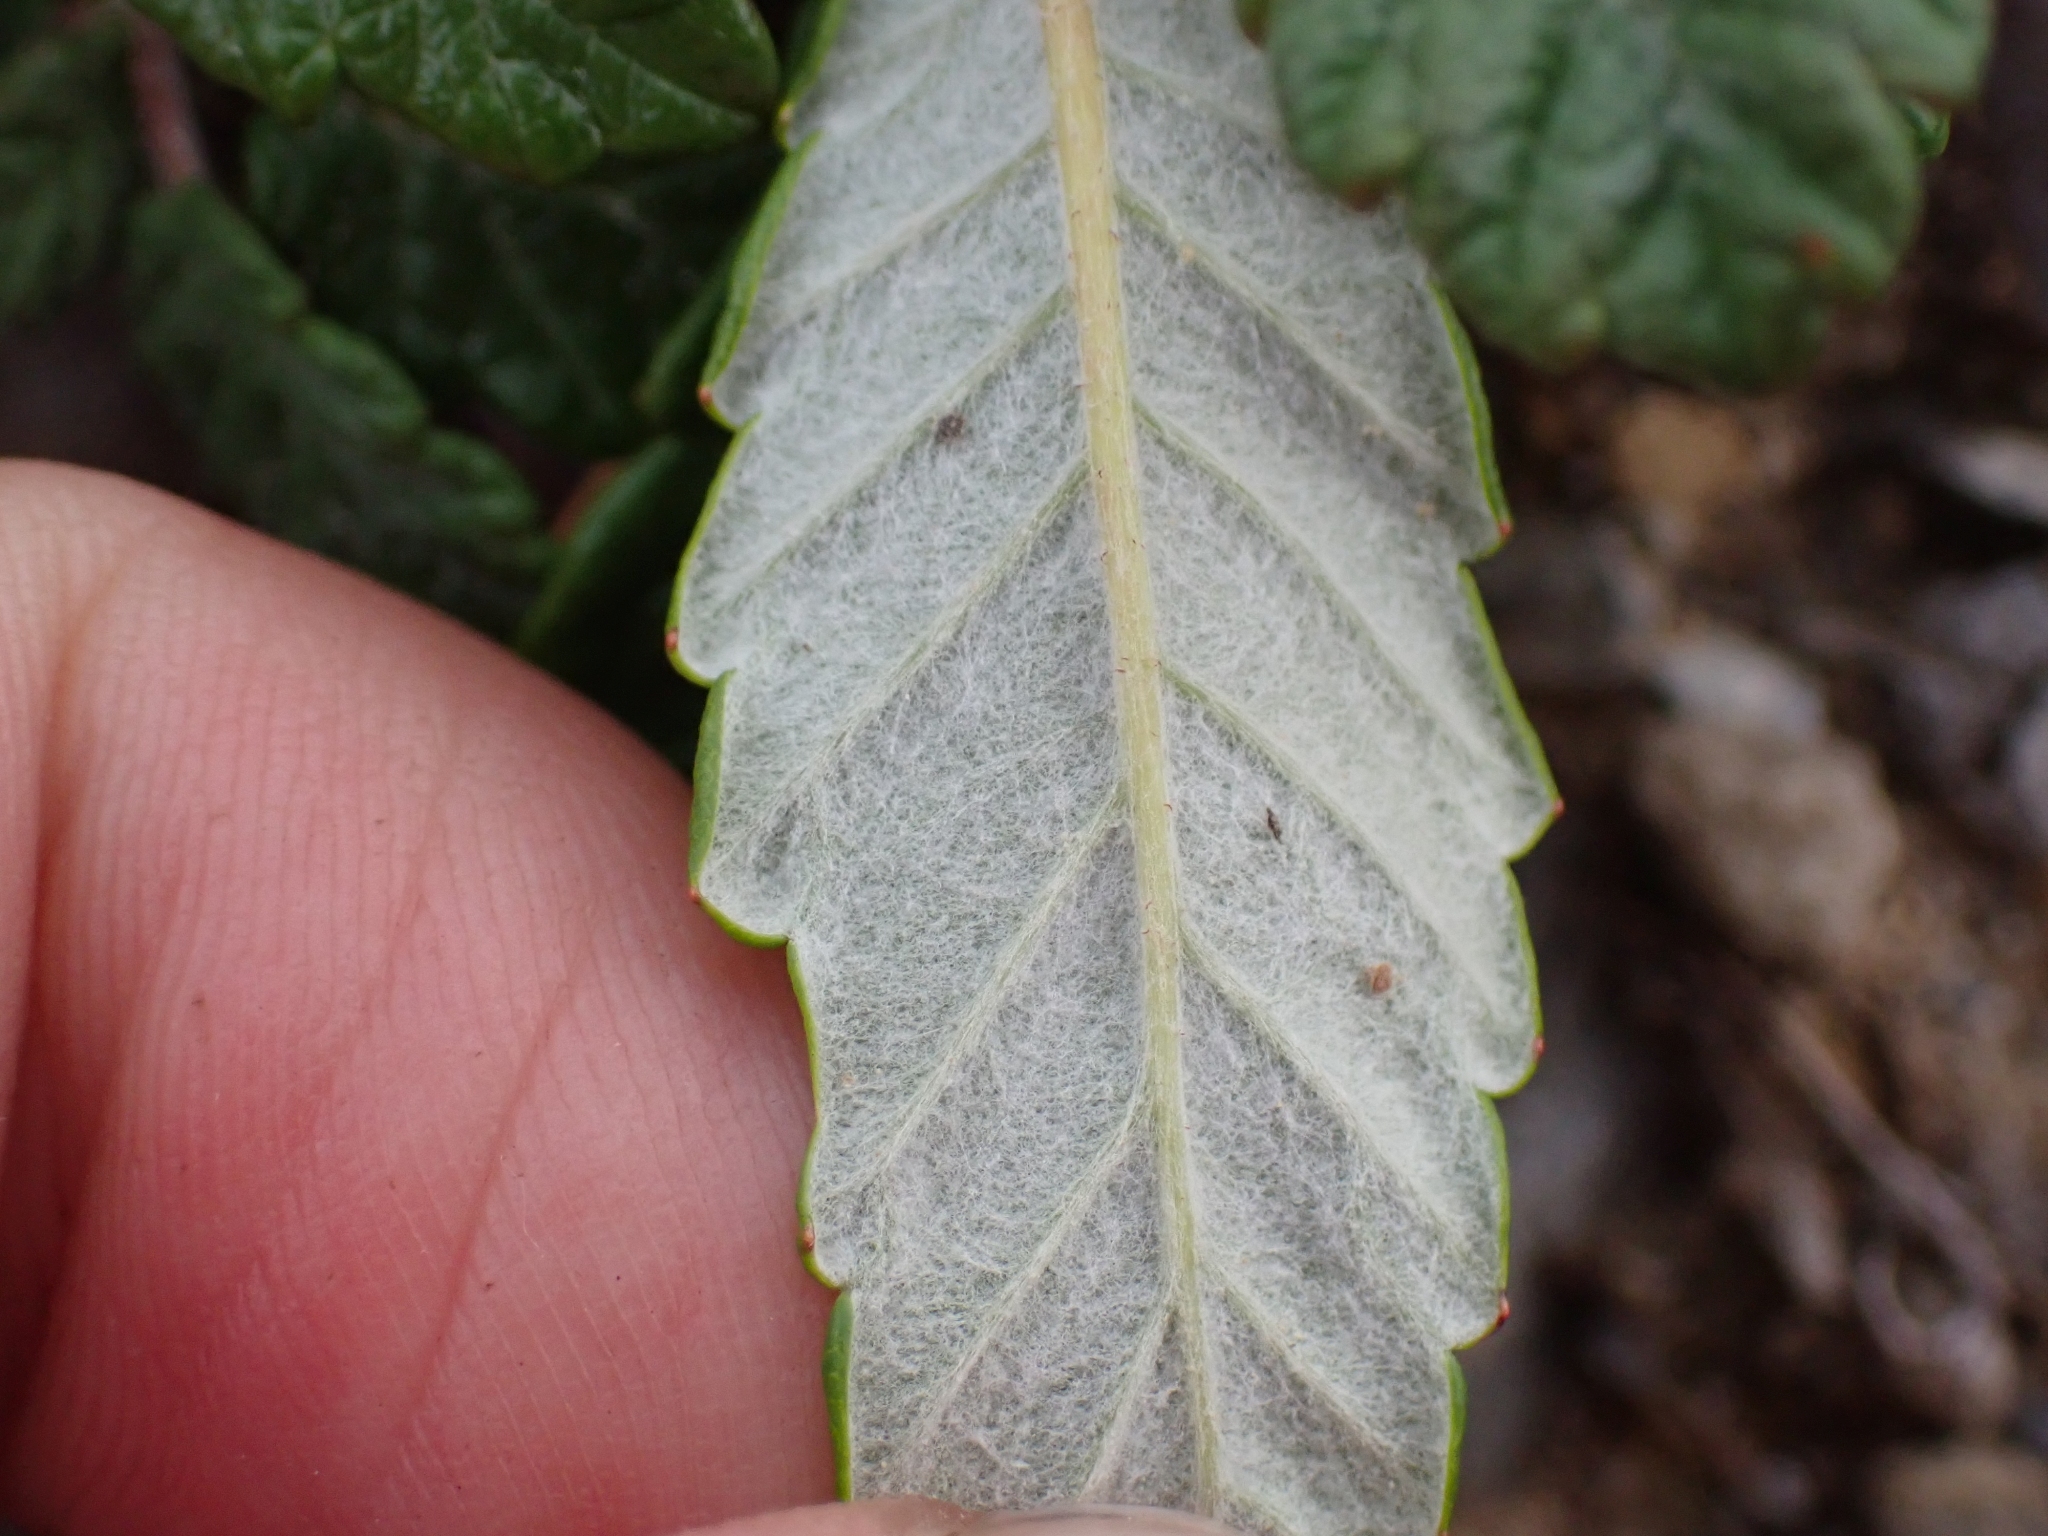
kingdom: Plantae
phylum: Tracheophyta
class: Magnoliopsida
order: Rosales
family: Rosaceae
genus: Dryas
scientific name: Dryas drummondii
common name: Drummond's dryad
